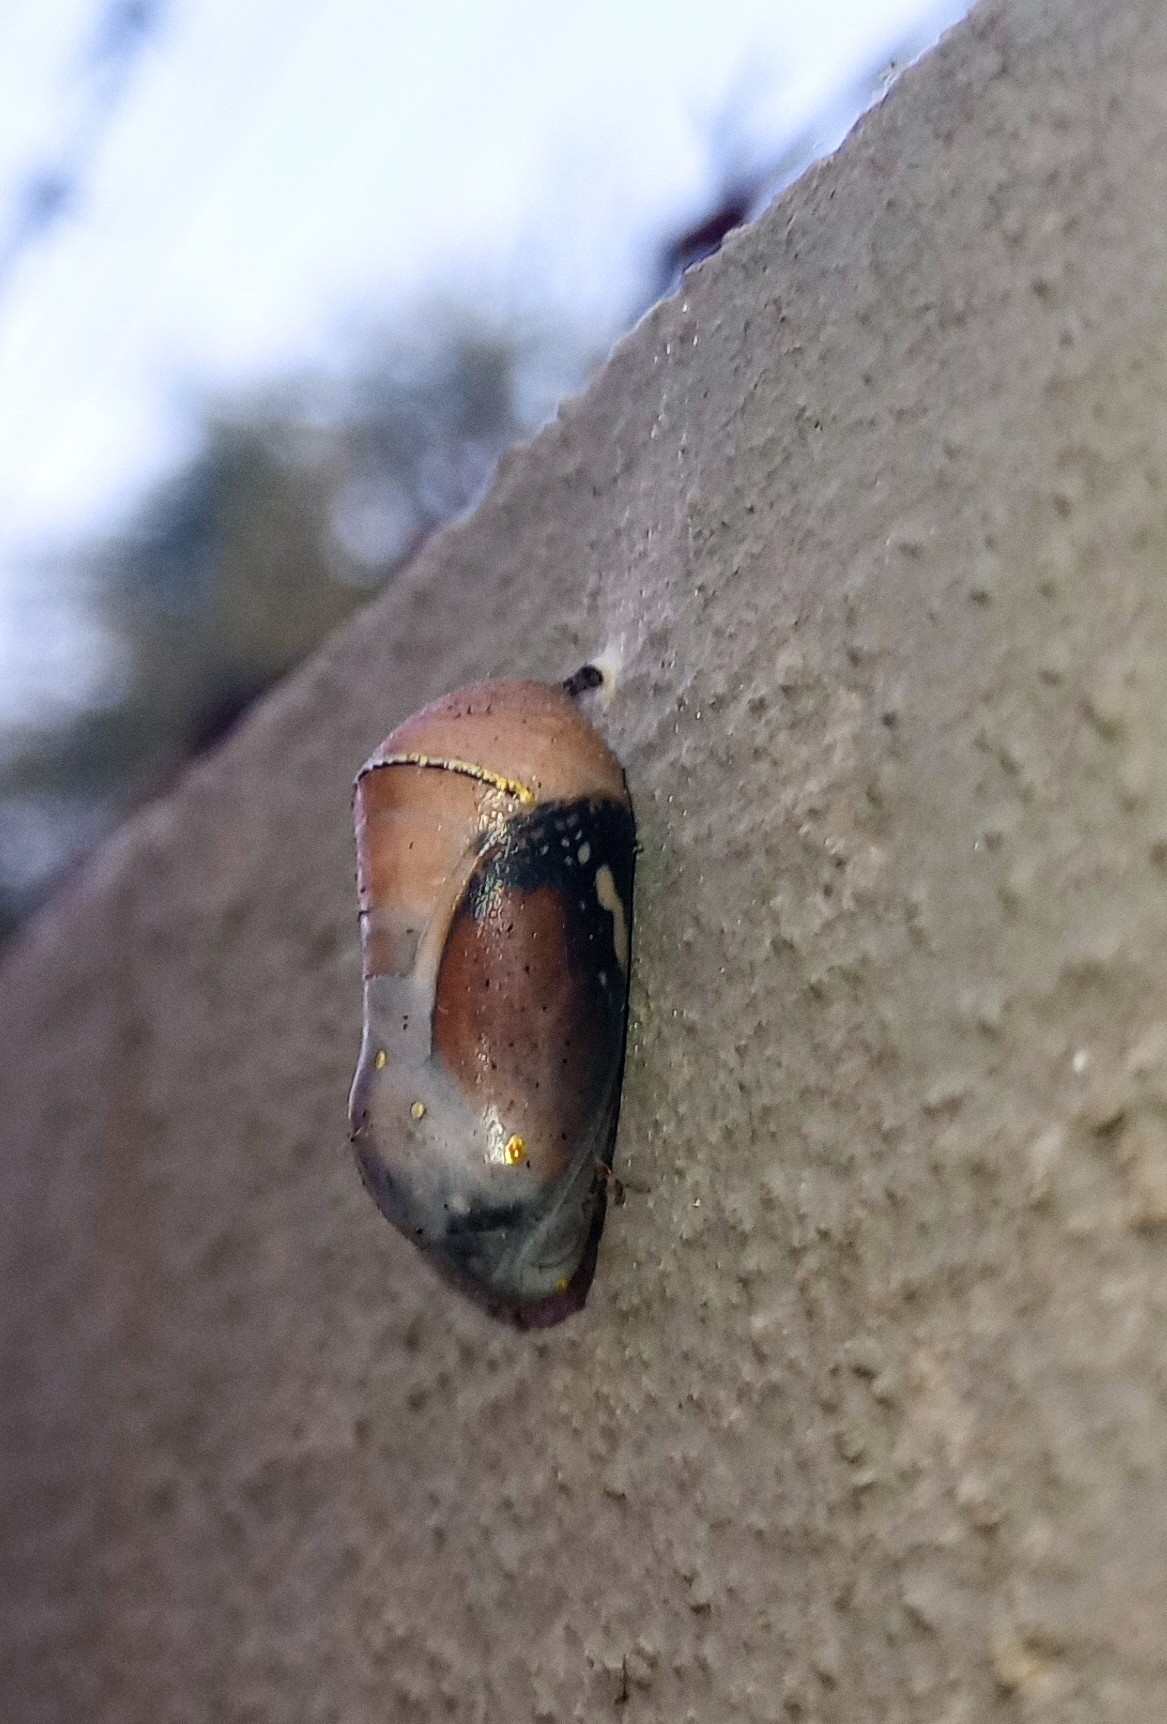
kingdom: Animalia
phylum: Arthropoda
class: Insecta
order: Lepidoptera
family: Nymphalidae
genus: Danaus
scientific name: Danaus chrysippus
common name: Plain tiger
